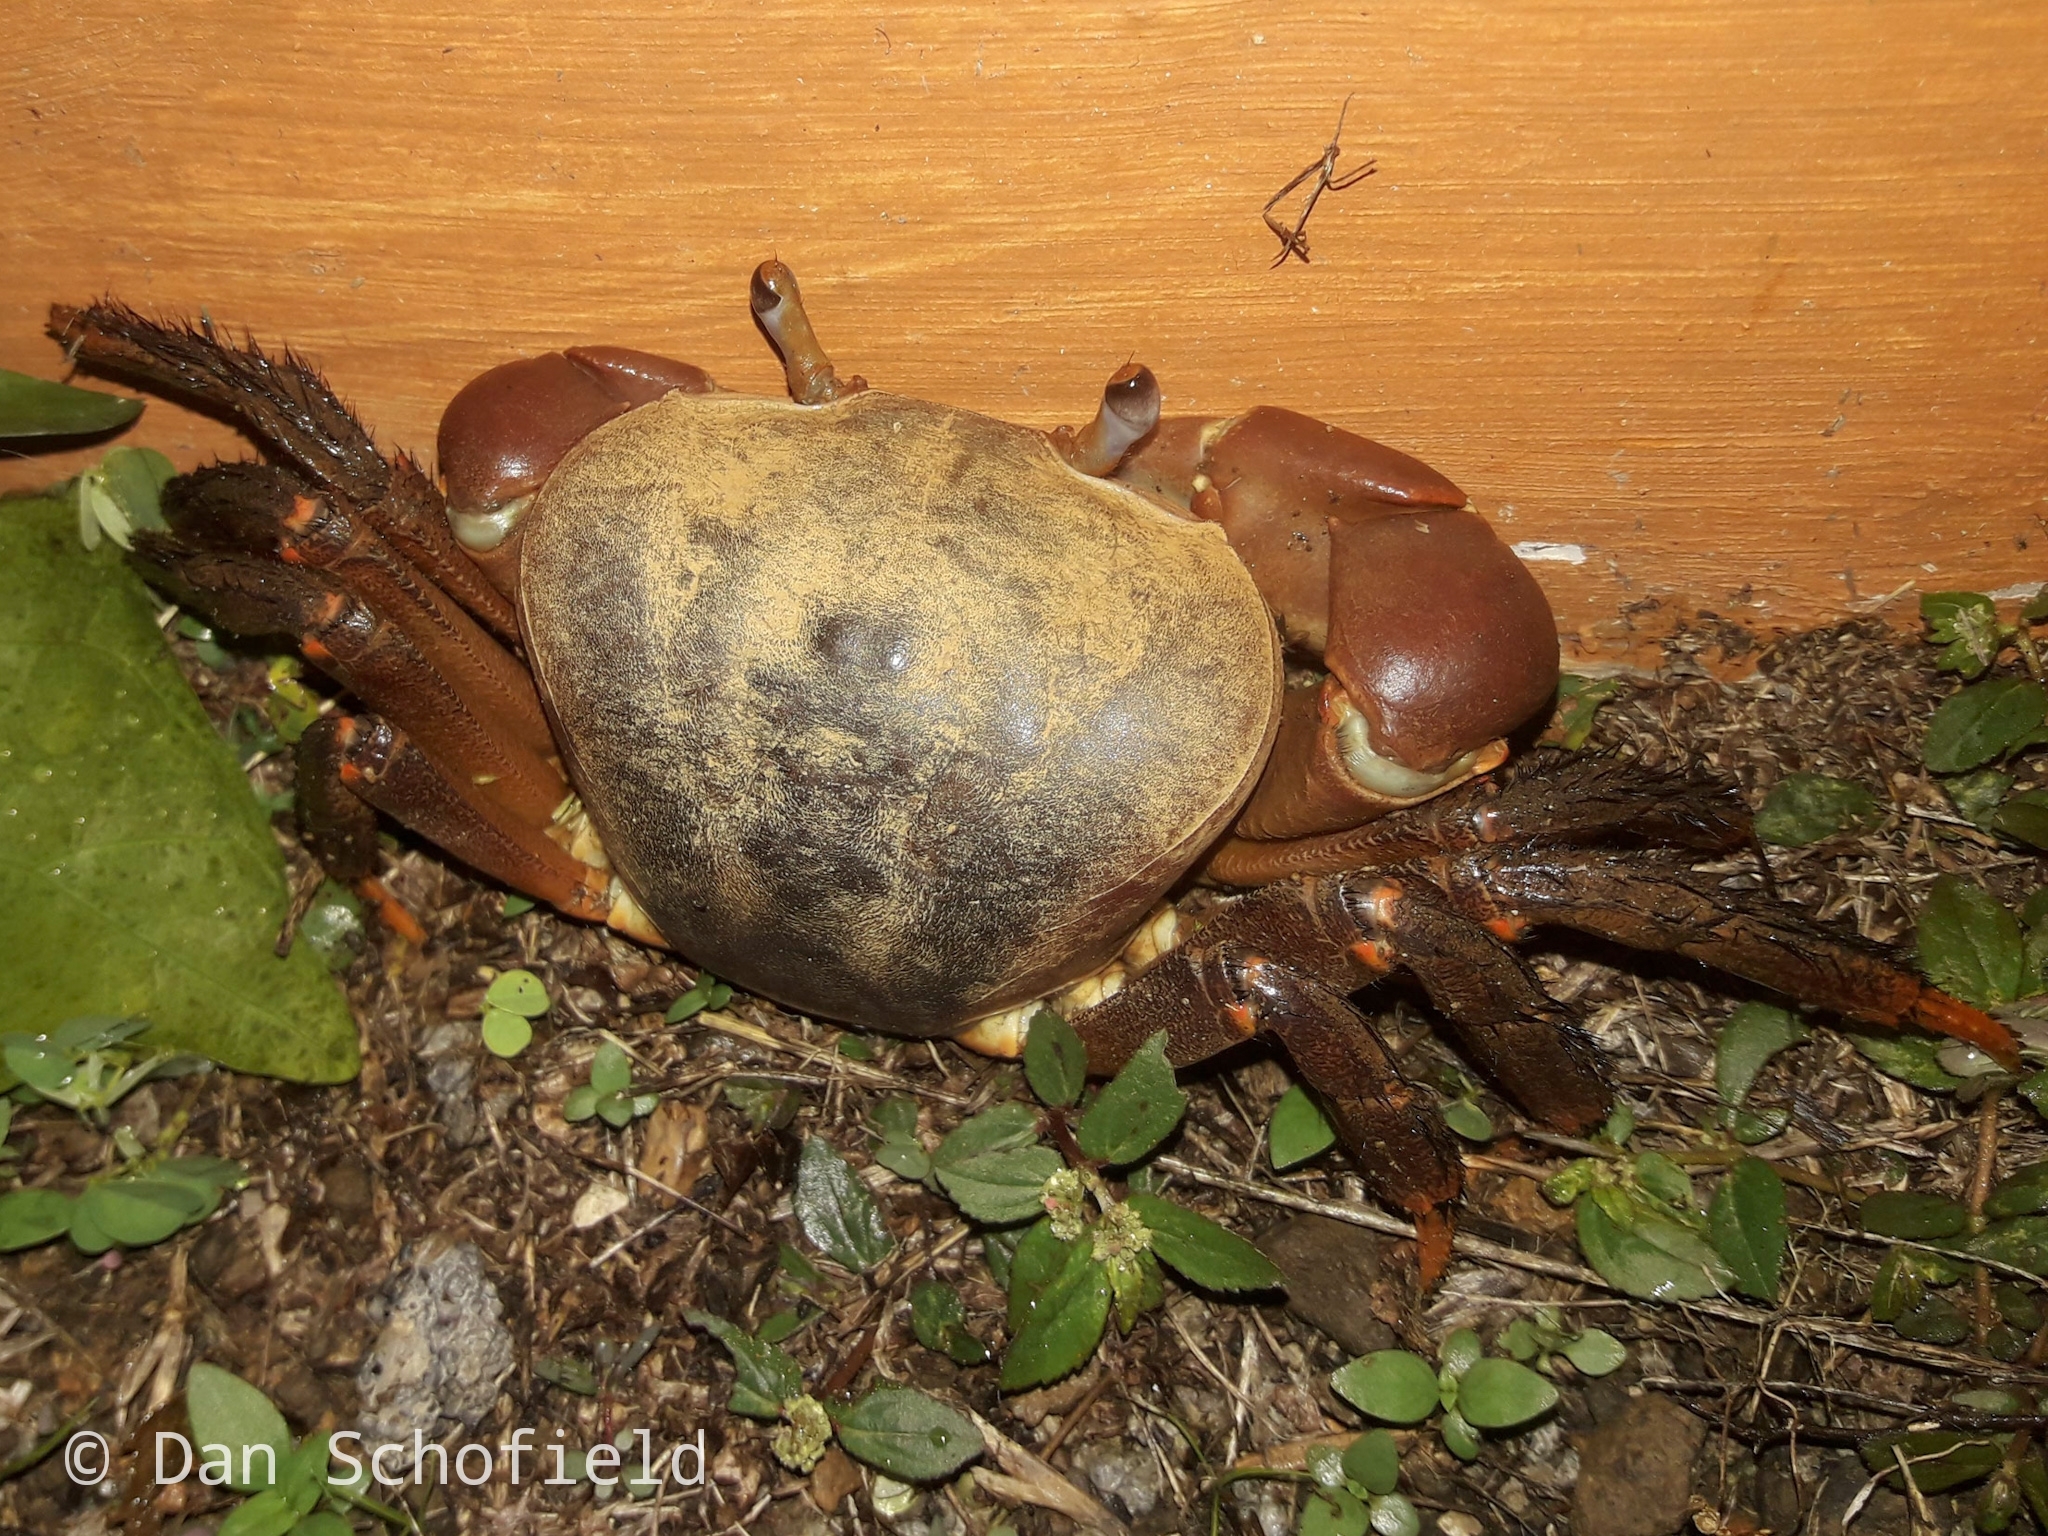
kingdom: Animalia
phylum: Arthropoda
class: Malacostraca
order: Decapoda
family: Gecarcinidae
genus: Cardisoma
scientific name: Cardisoma carnifex
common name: Brown land crab
